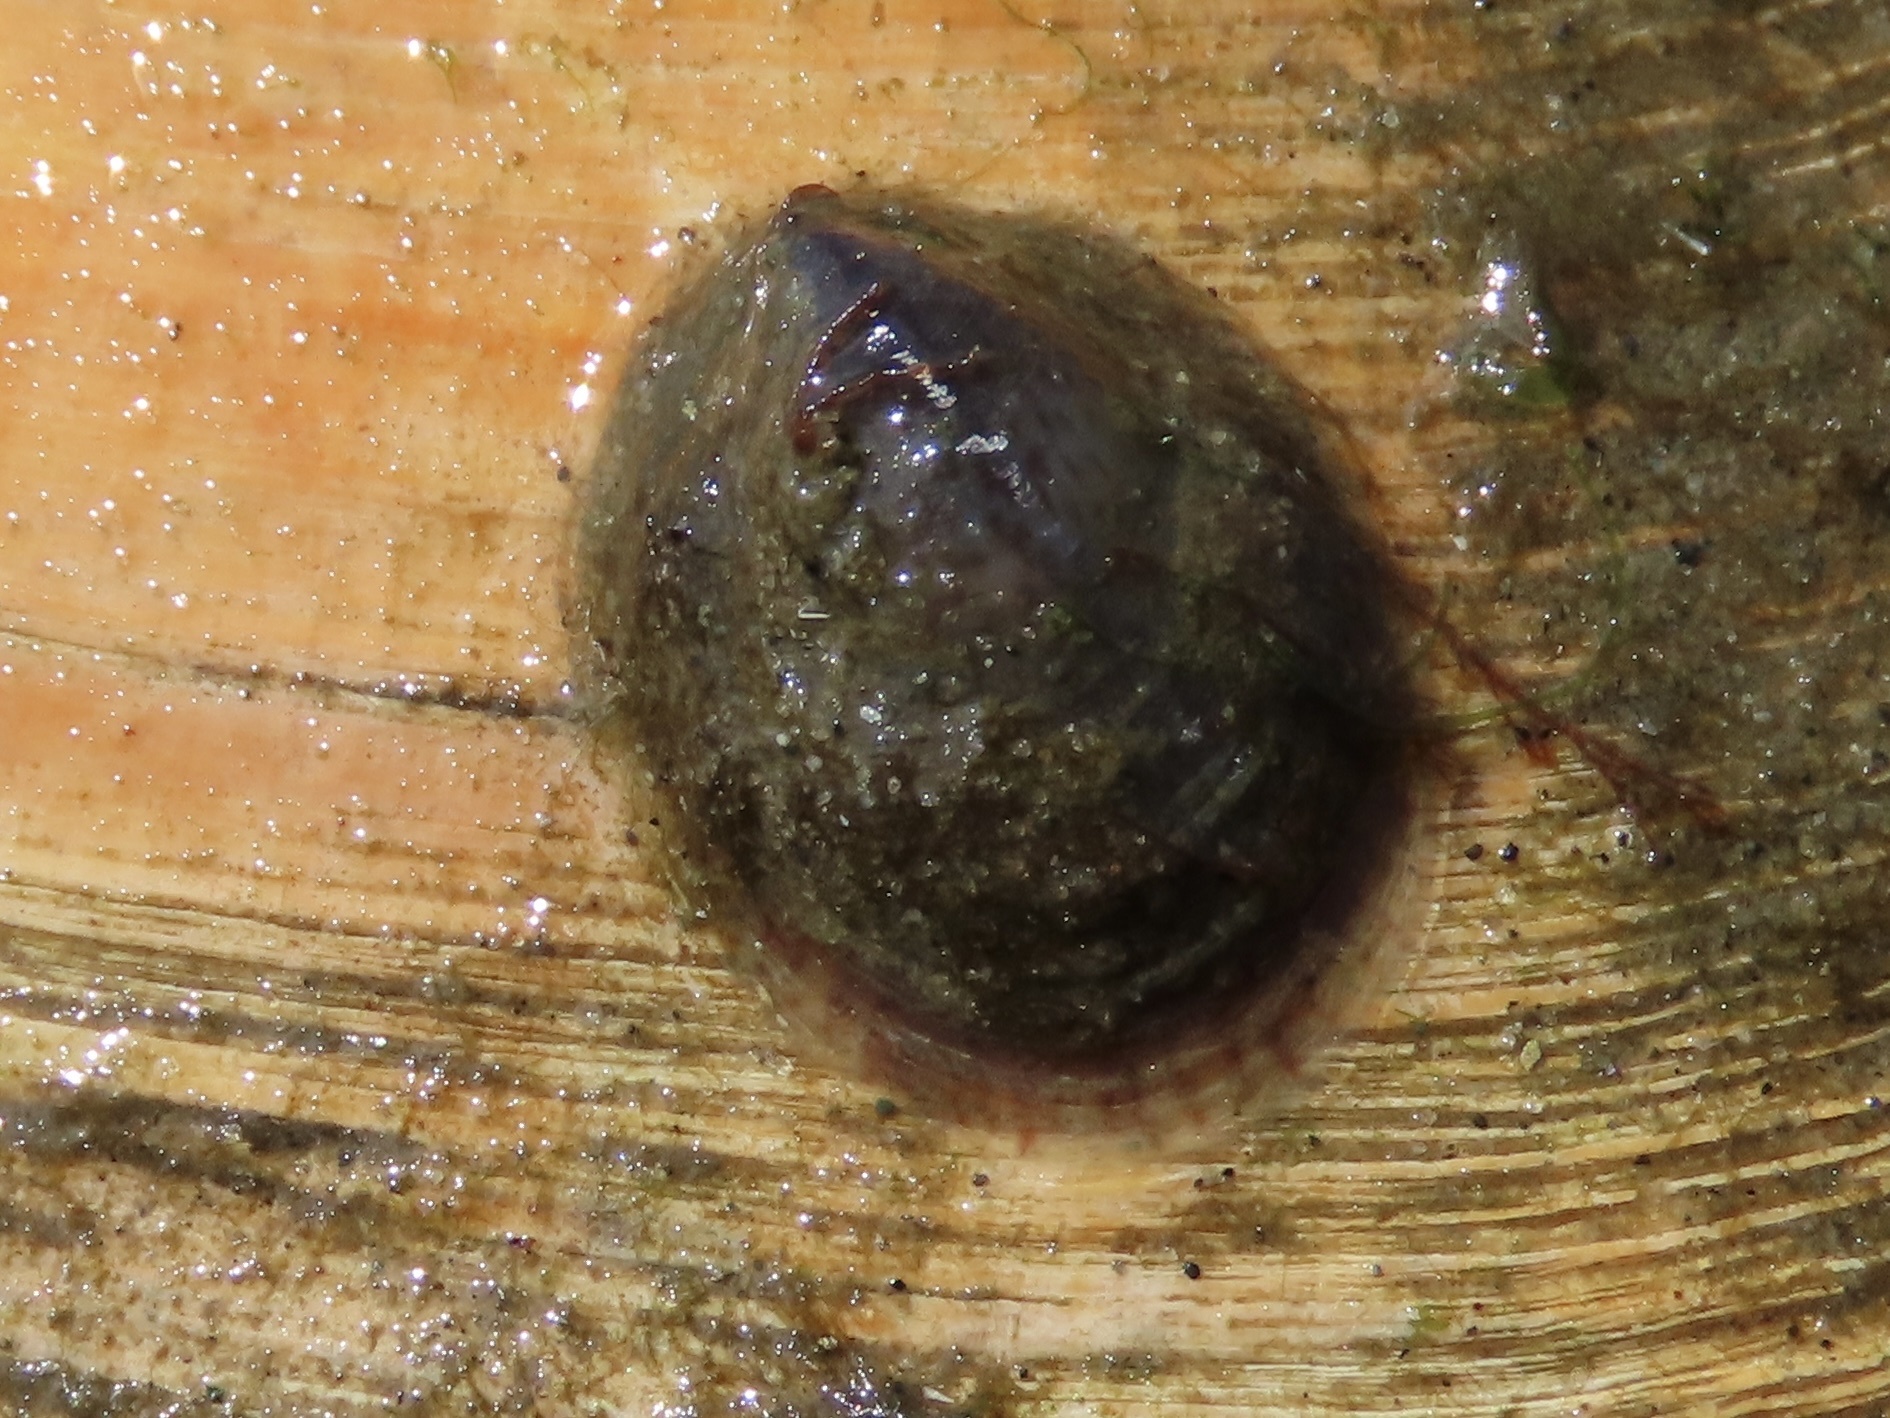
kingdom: Animalia
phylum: Mollusca
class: Gastropoda
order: Littorinimorpha
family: Calyptraeidae
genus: Crepidula
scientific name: Crepidula convexa
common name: Convex slippersnail
